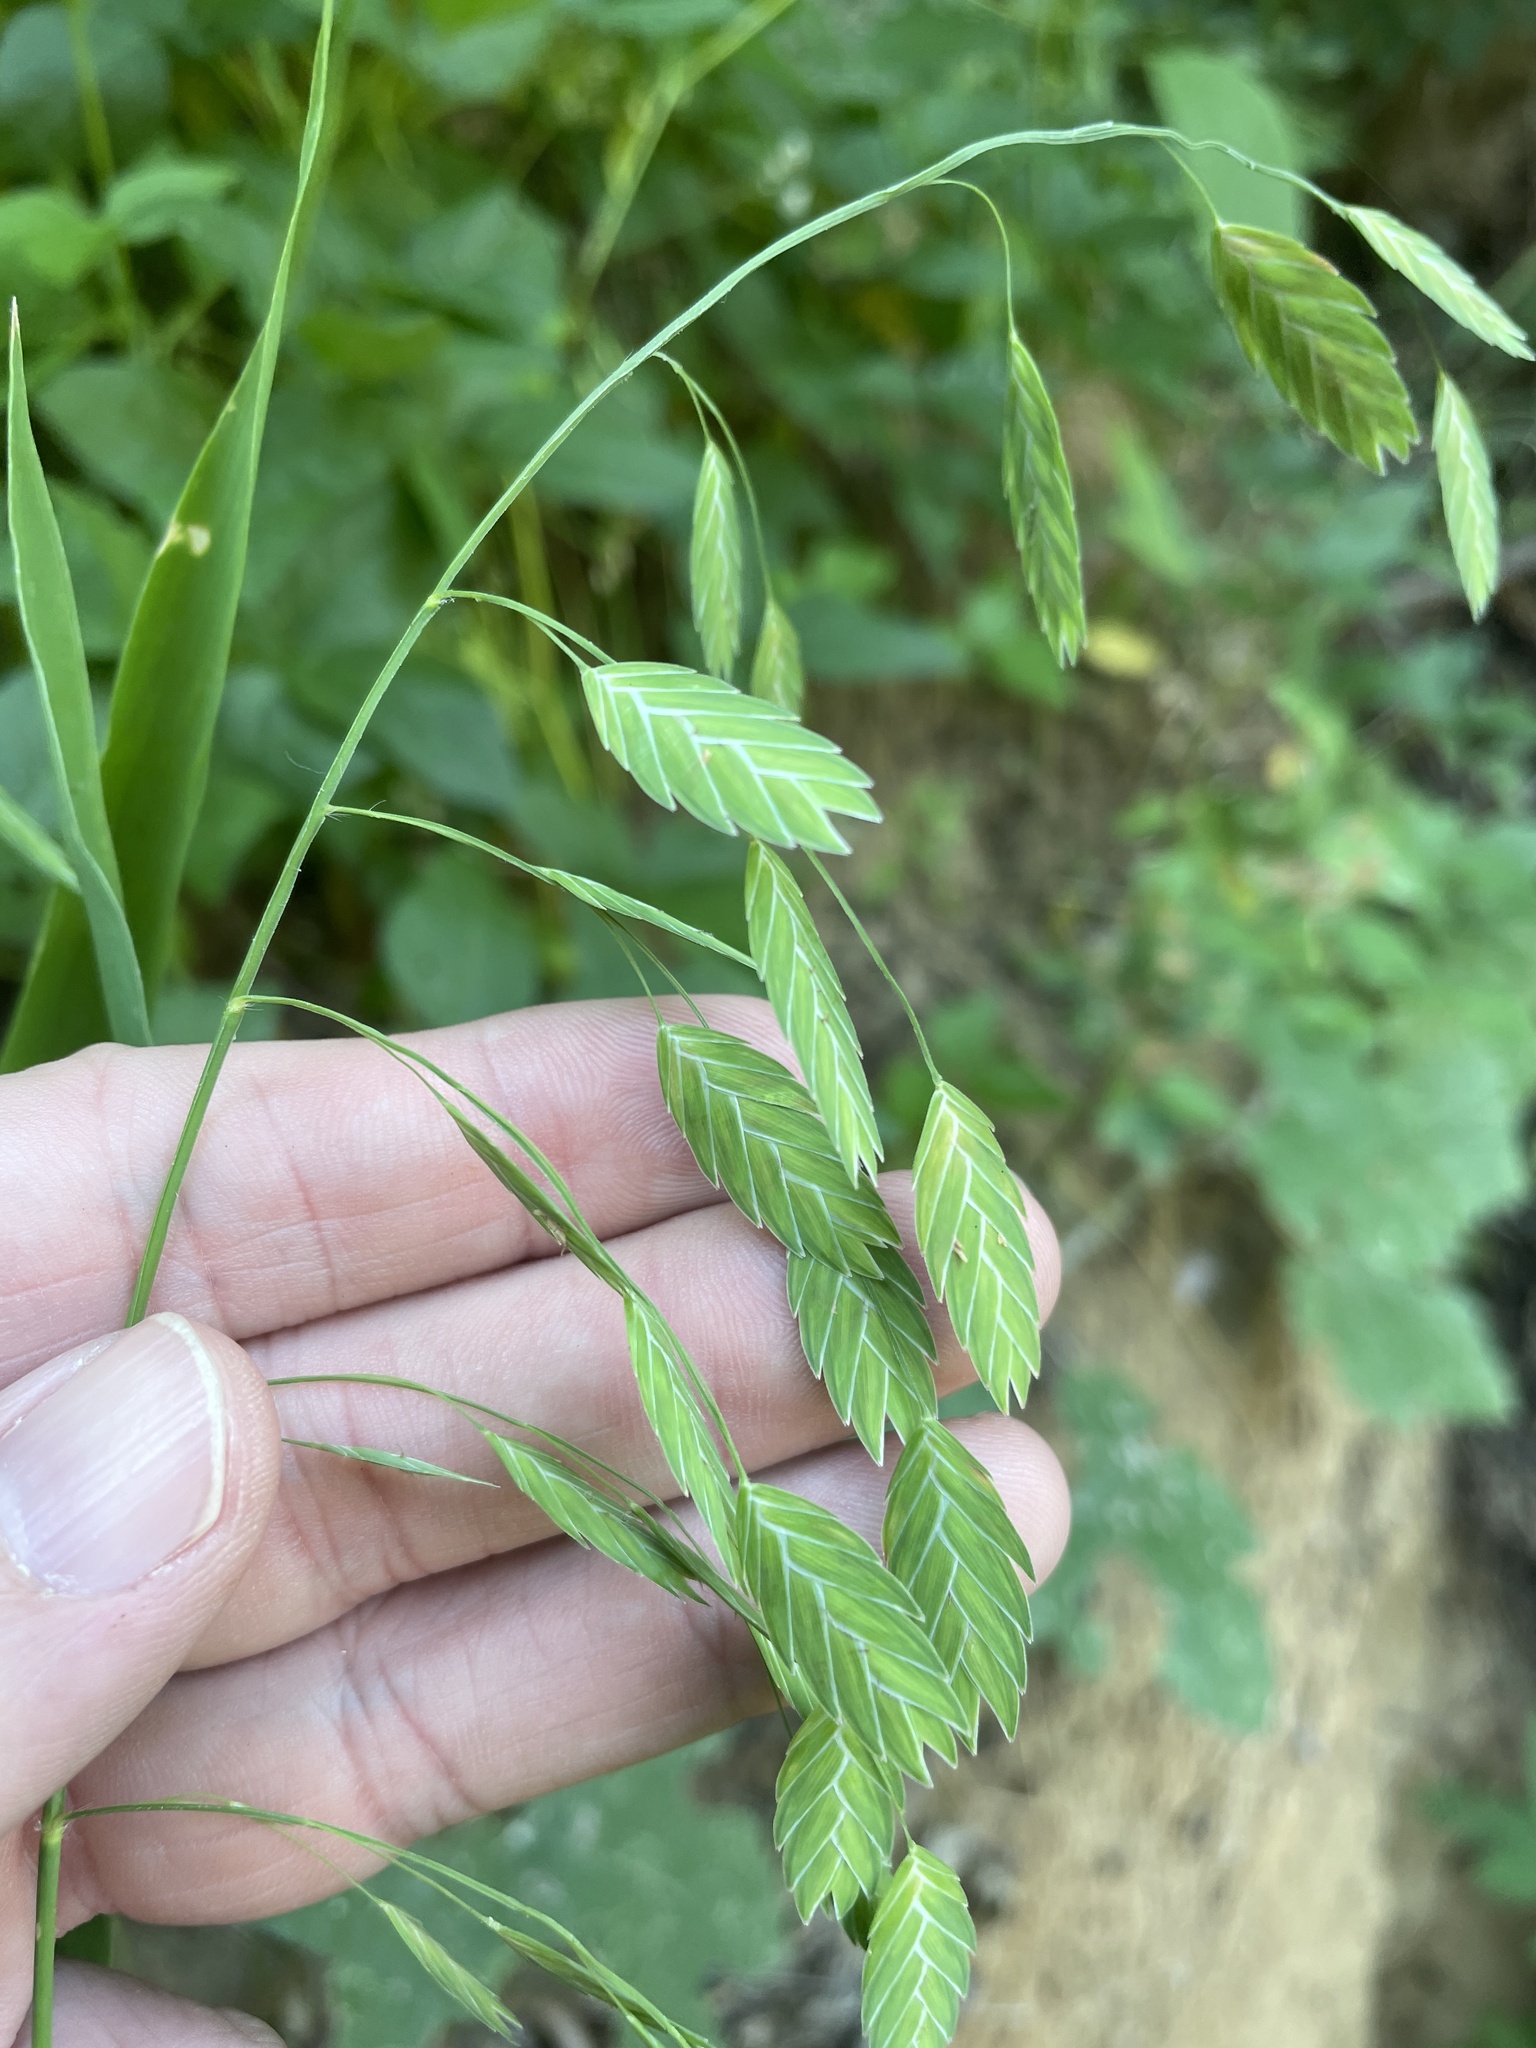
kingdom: Plantae
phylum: Tracheophyta
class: Liliopsida
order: Poales
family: Poaceae
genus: Chasmanthium
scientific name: Chasmanthium latifolium
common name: Broad-leaved chasmanthium
